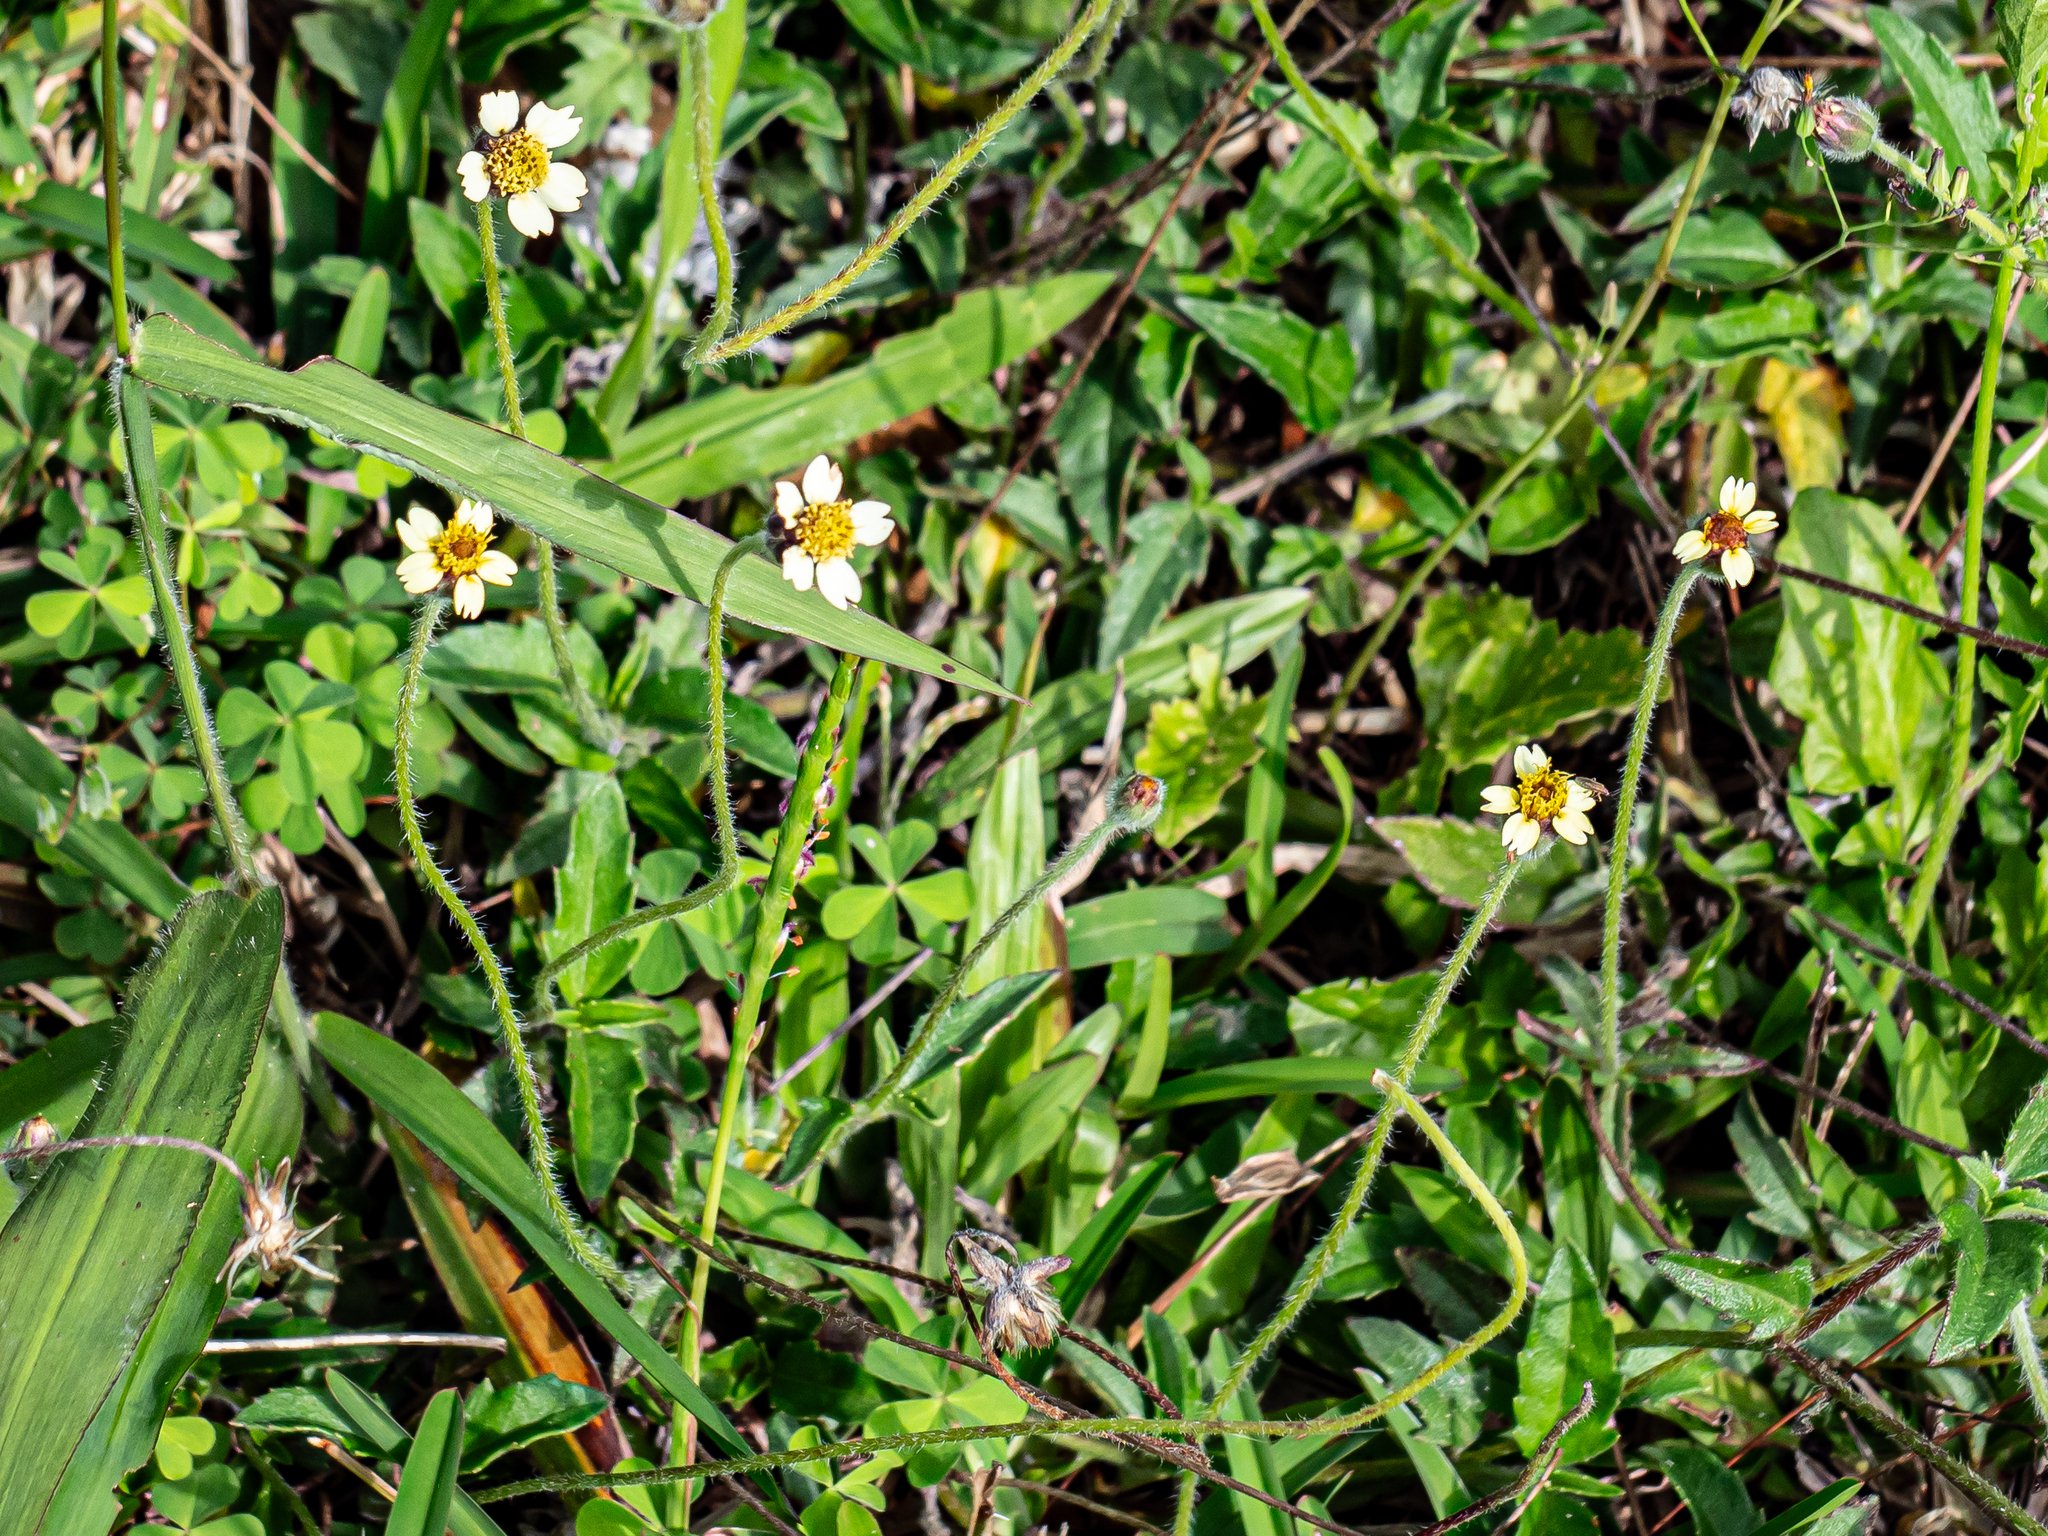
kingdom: Plantae
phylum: Tracheophyta
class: Magnoliopsida
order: Asterales
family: Asteraceae
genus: Tridax
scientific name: Tridax procumbens
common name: Coatbuttons
